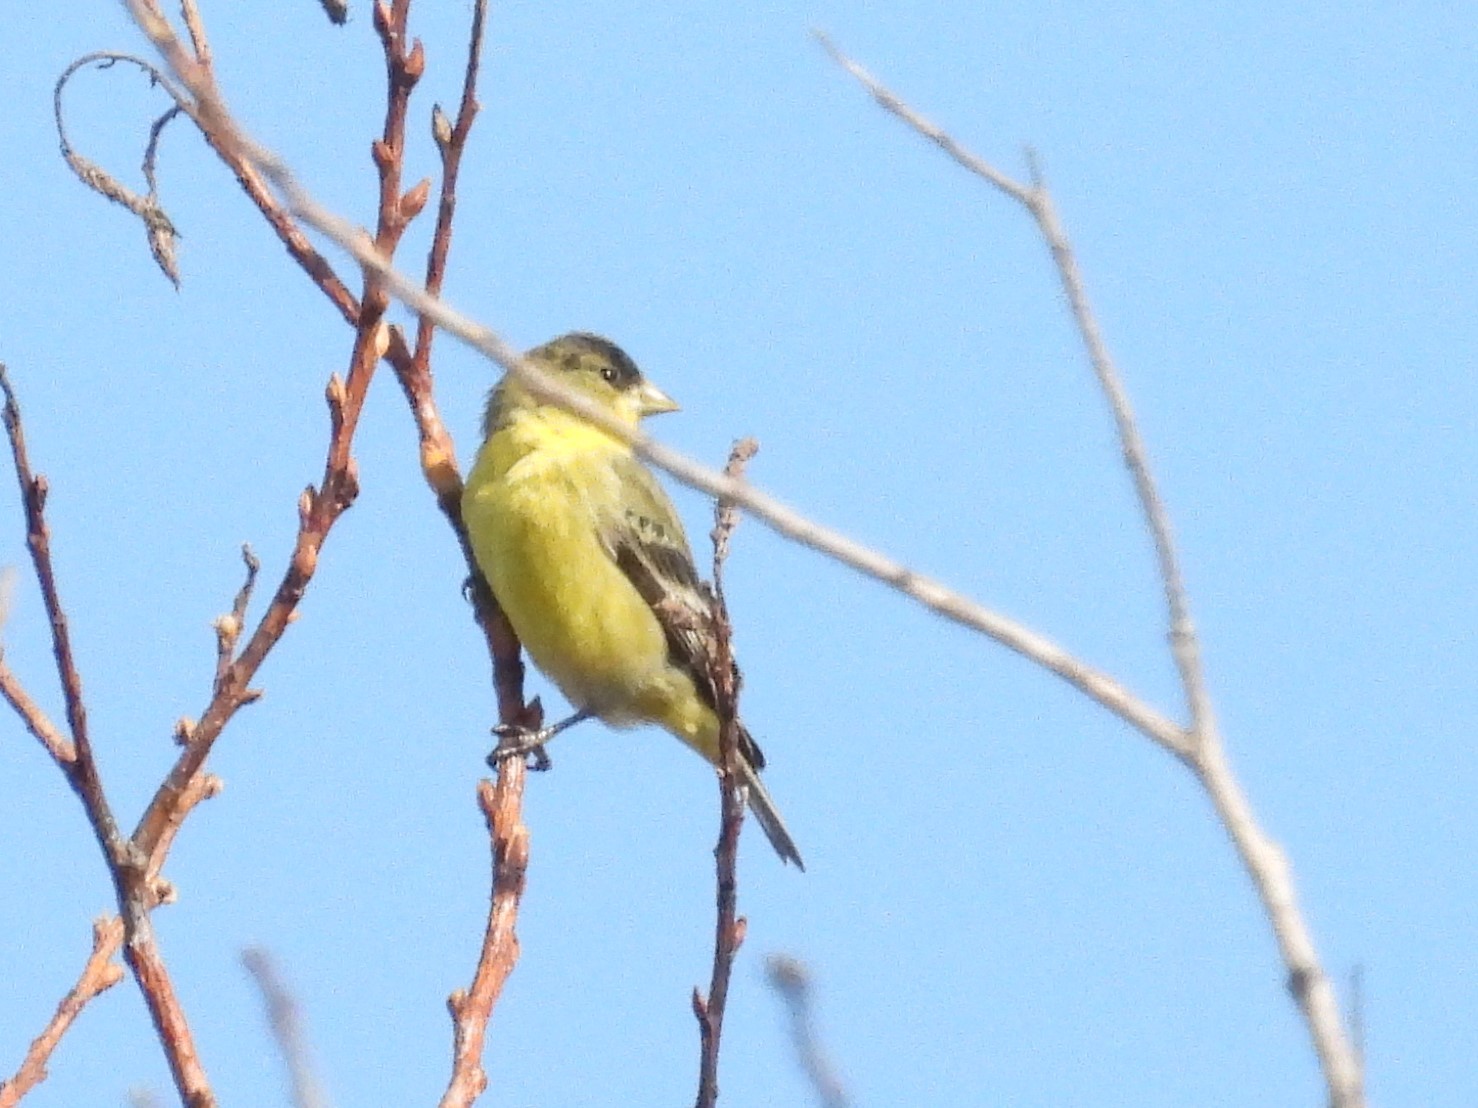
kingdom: Animalia
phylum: Chordata
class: Aves
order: Passeriformes
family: Fringillidae
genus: Spinus
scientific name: Spinus psaltria
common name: Lesser goldfinch
